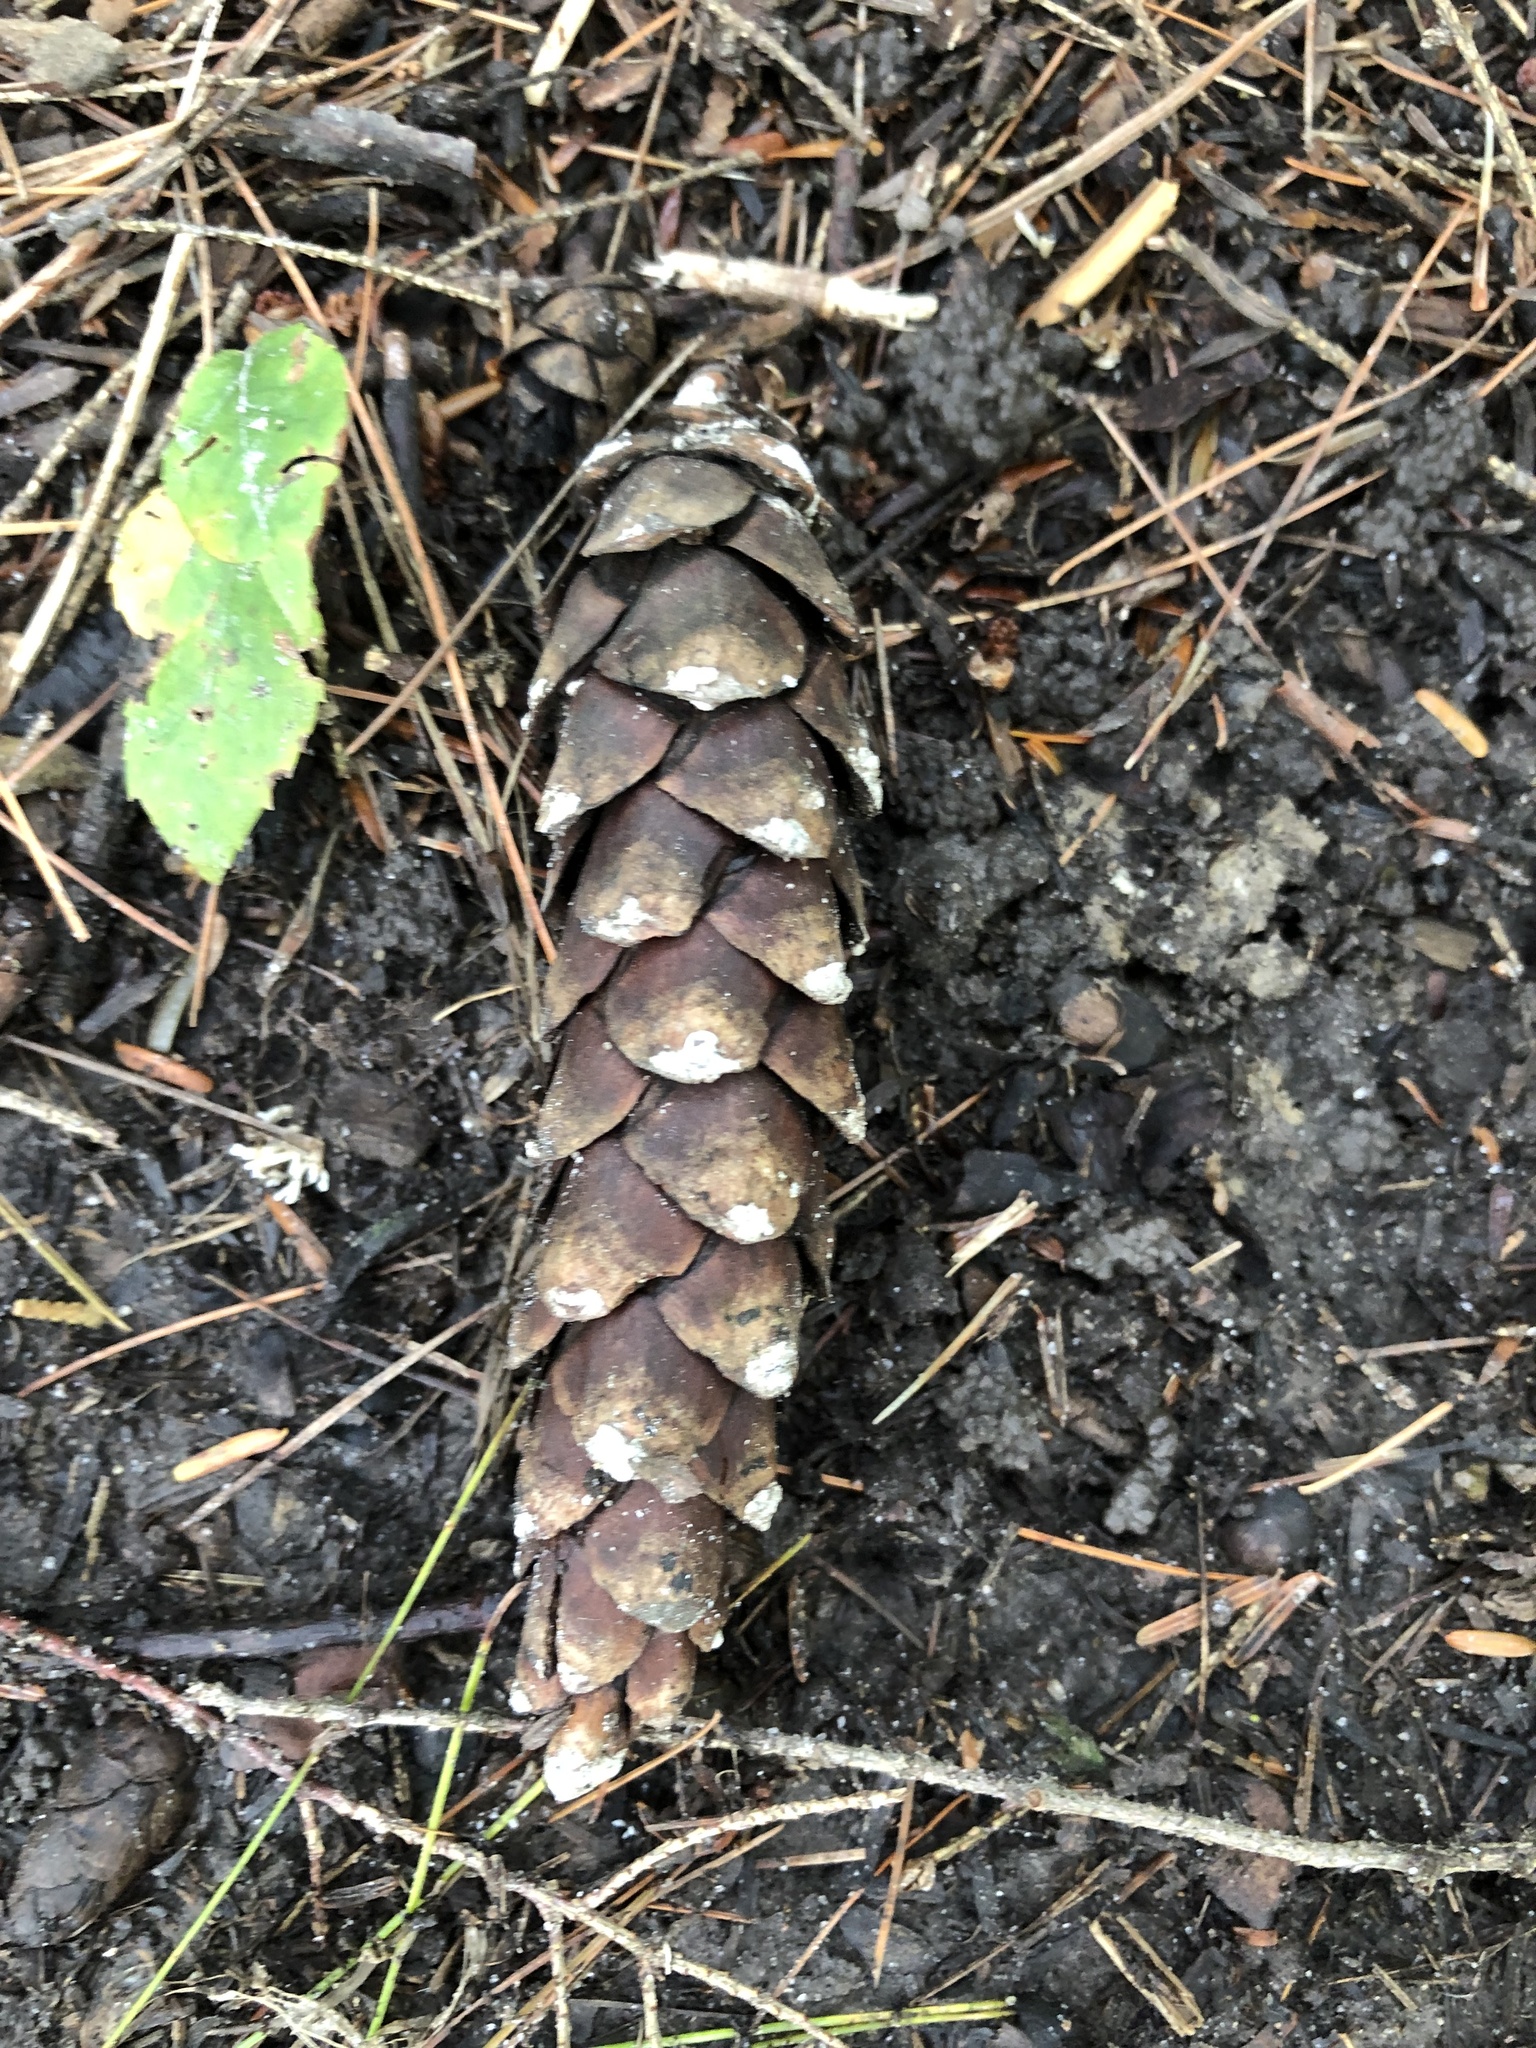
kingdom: Plantae
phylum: Tracheophyta
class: Pinopsida
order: Pinales
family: Pinaceae
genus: Pinus
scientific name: Pinus strobus
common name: Weymouth pine
